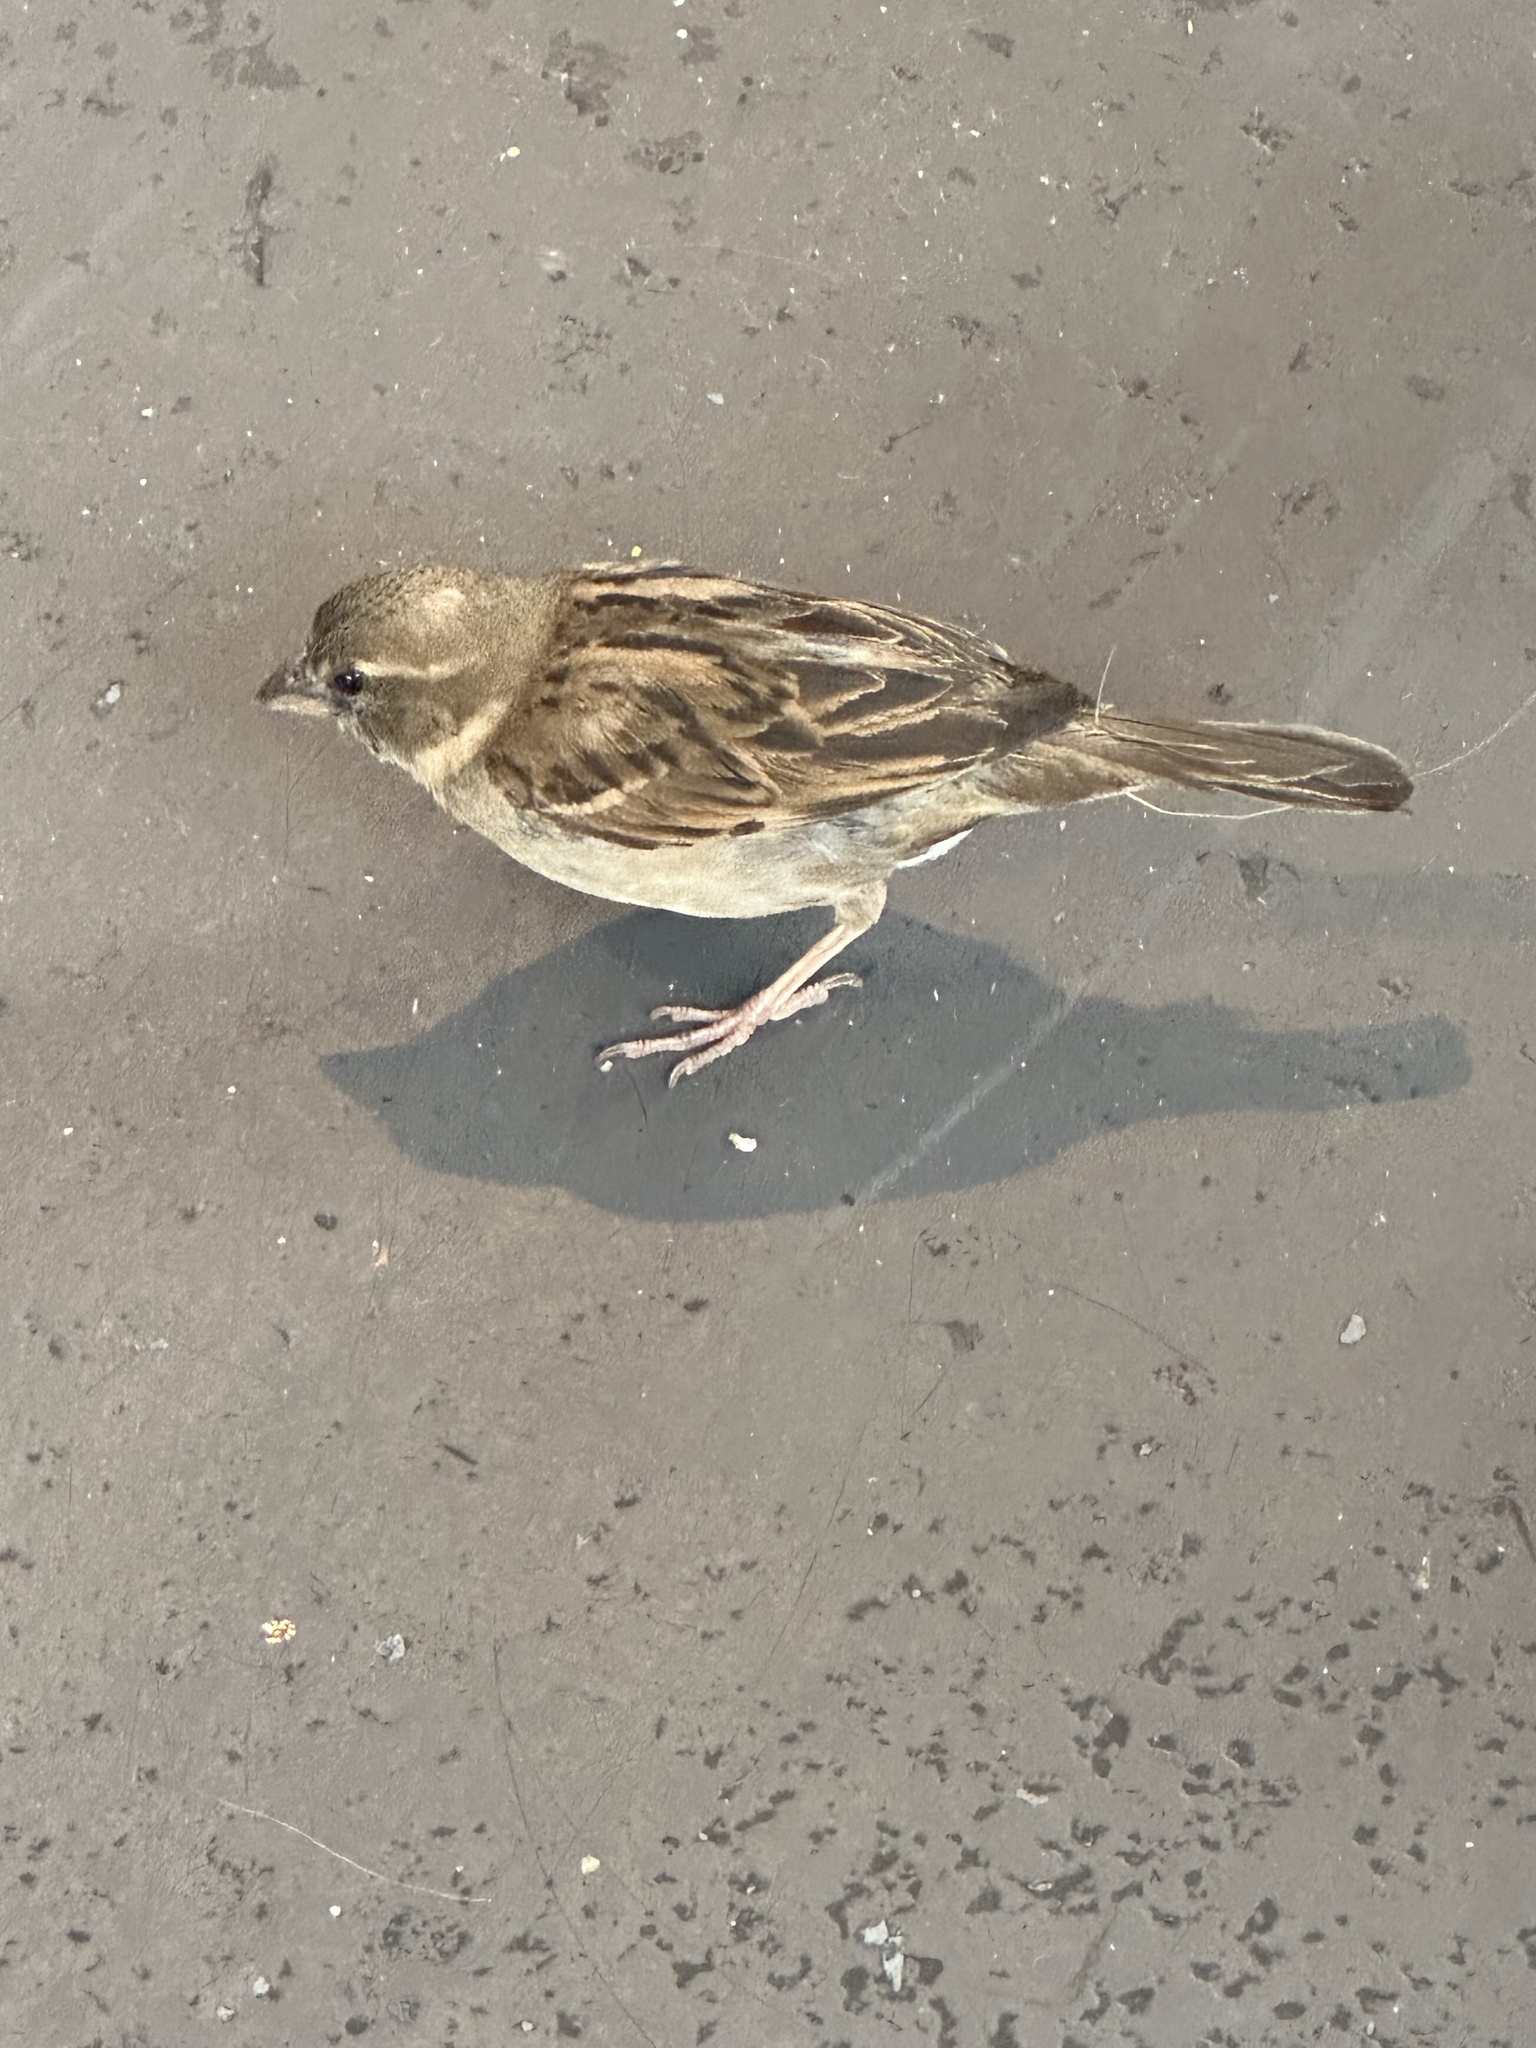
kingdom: Animalia
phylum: Chordata
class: Aves
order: Passeriformes
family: Passeridae
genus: Passer
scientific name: Passer domesticus
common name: House sparrow
